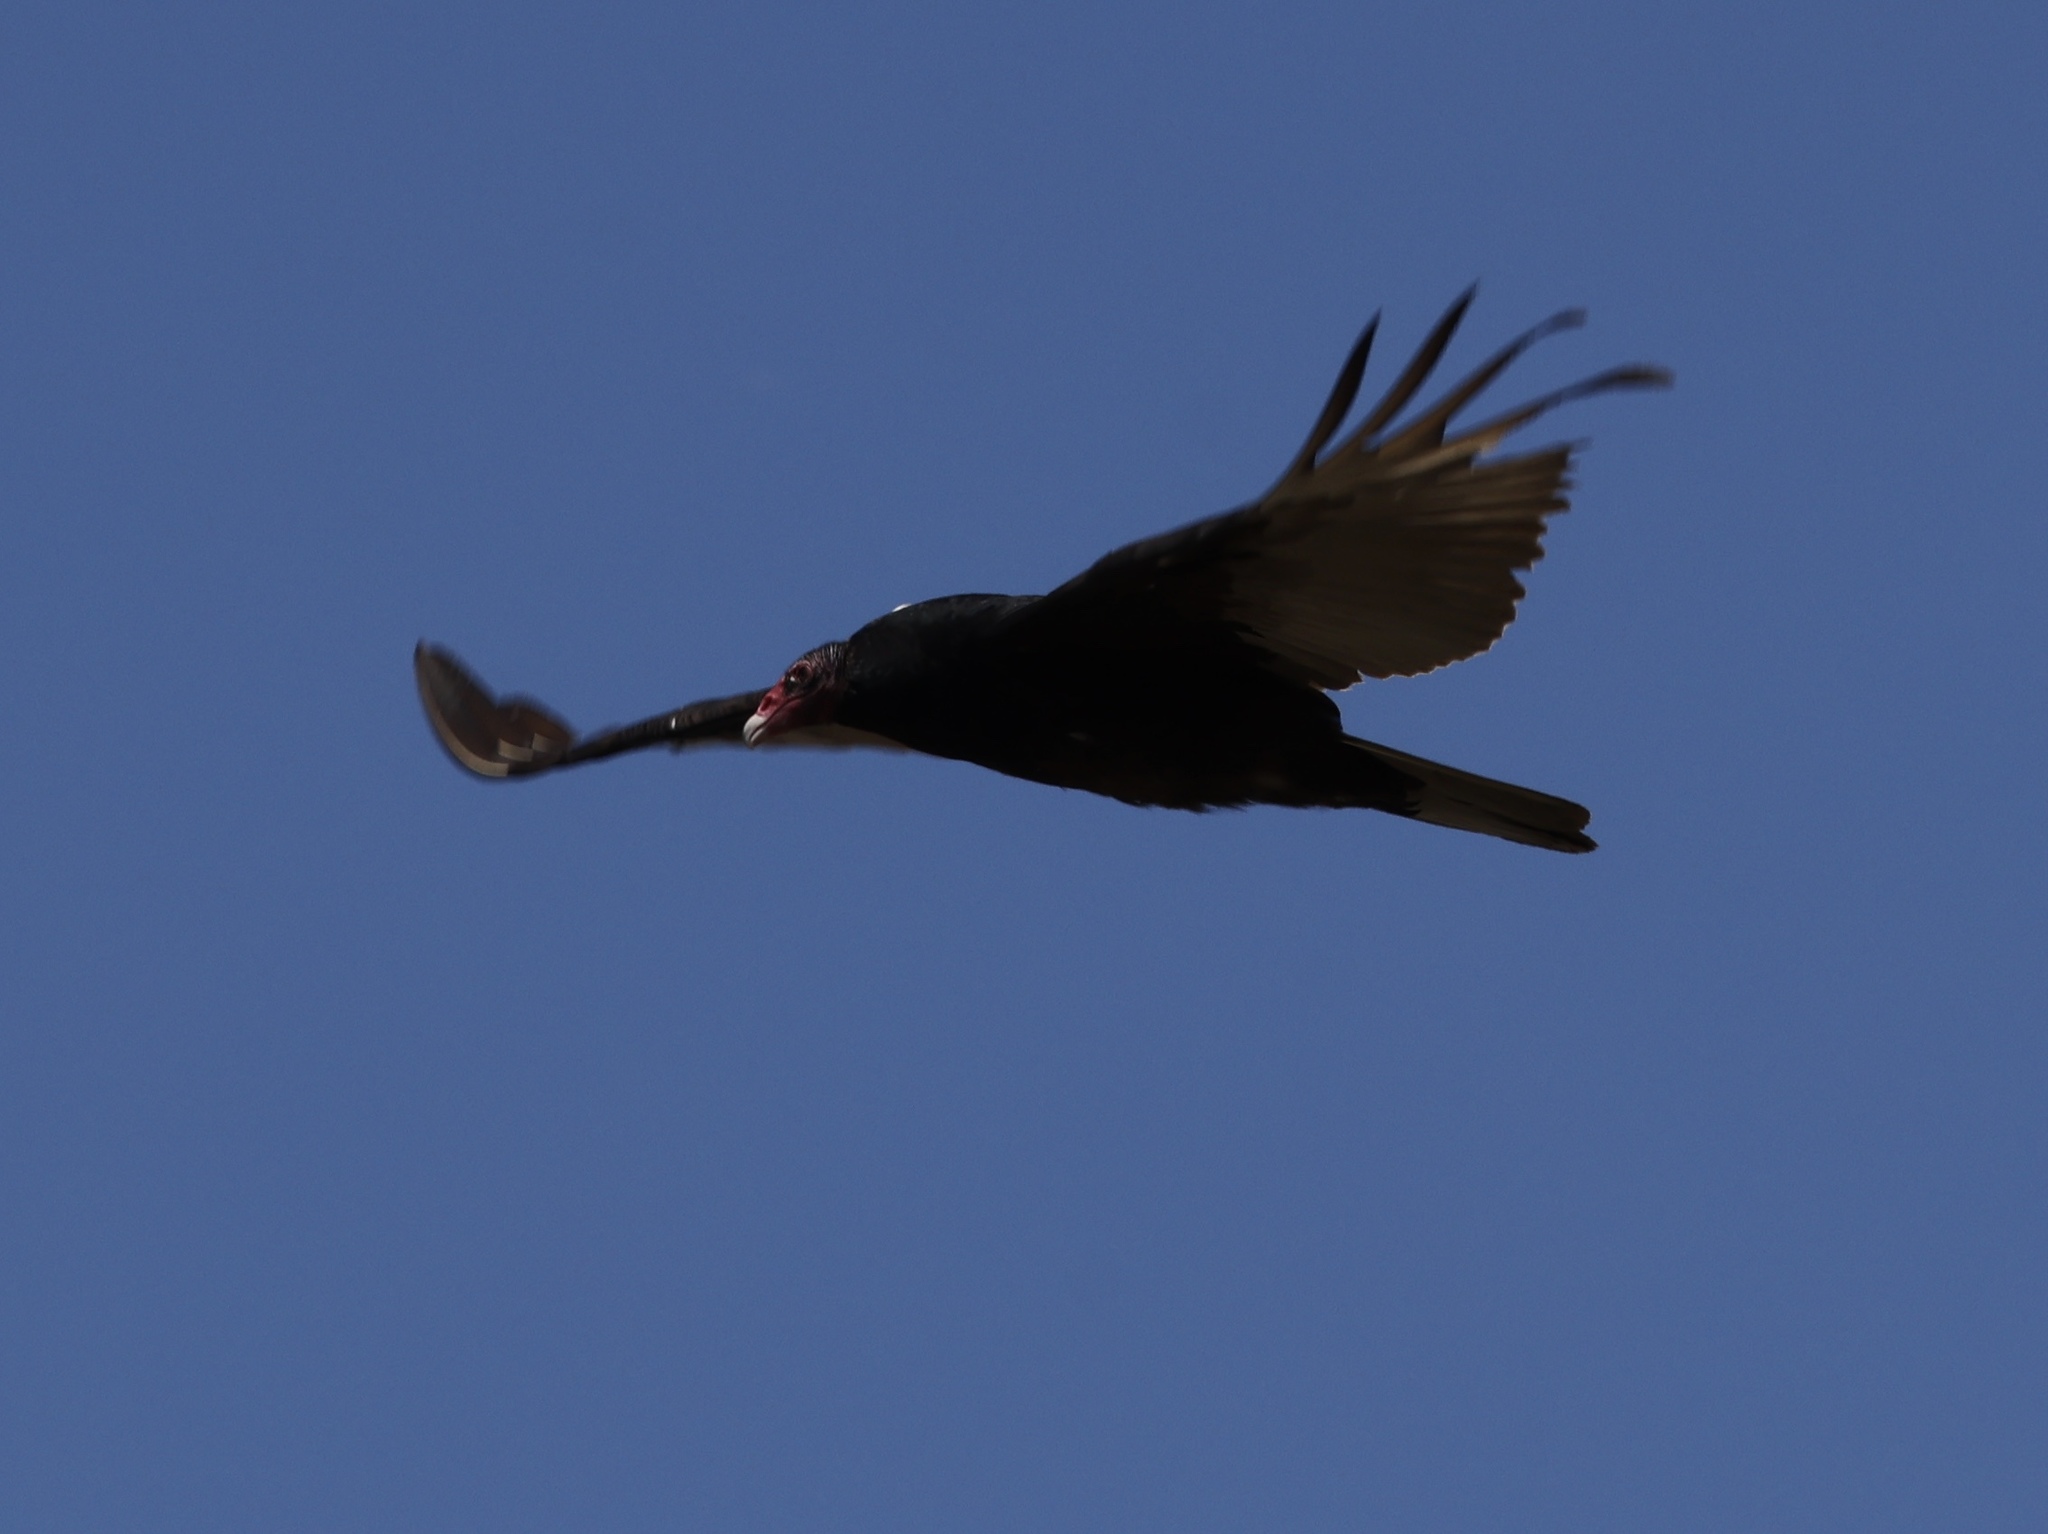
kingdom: Animalia
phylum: Chordata
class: Aves
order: Accipitriformes
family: Cathartidae
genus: Cathartes
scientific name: Cathartes aura
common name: Turkey vulture
